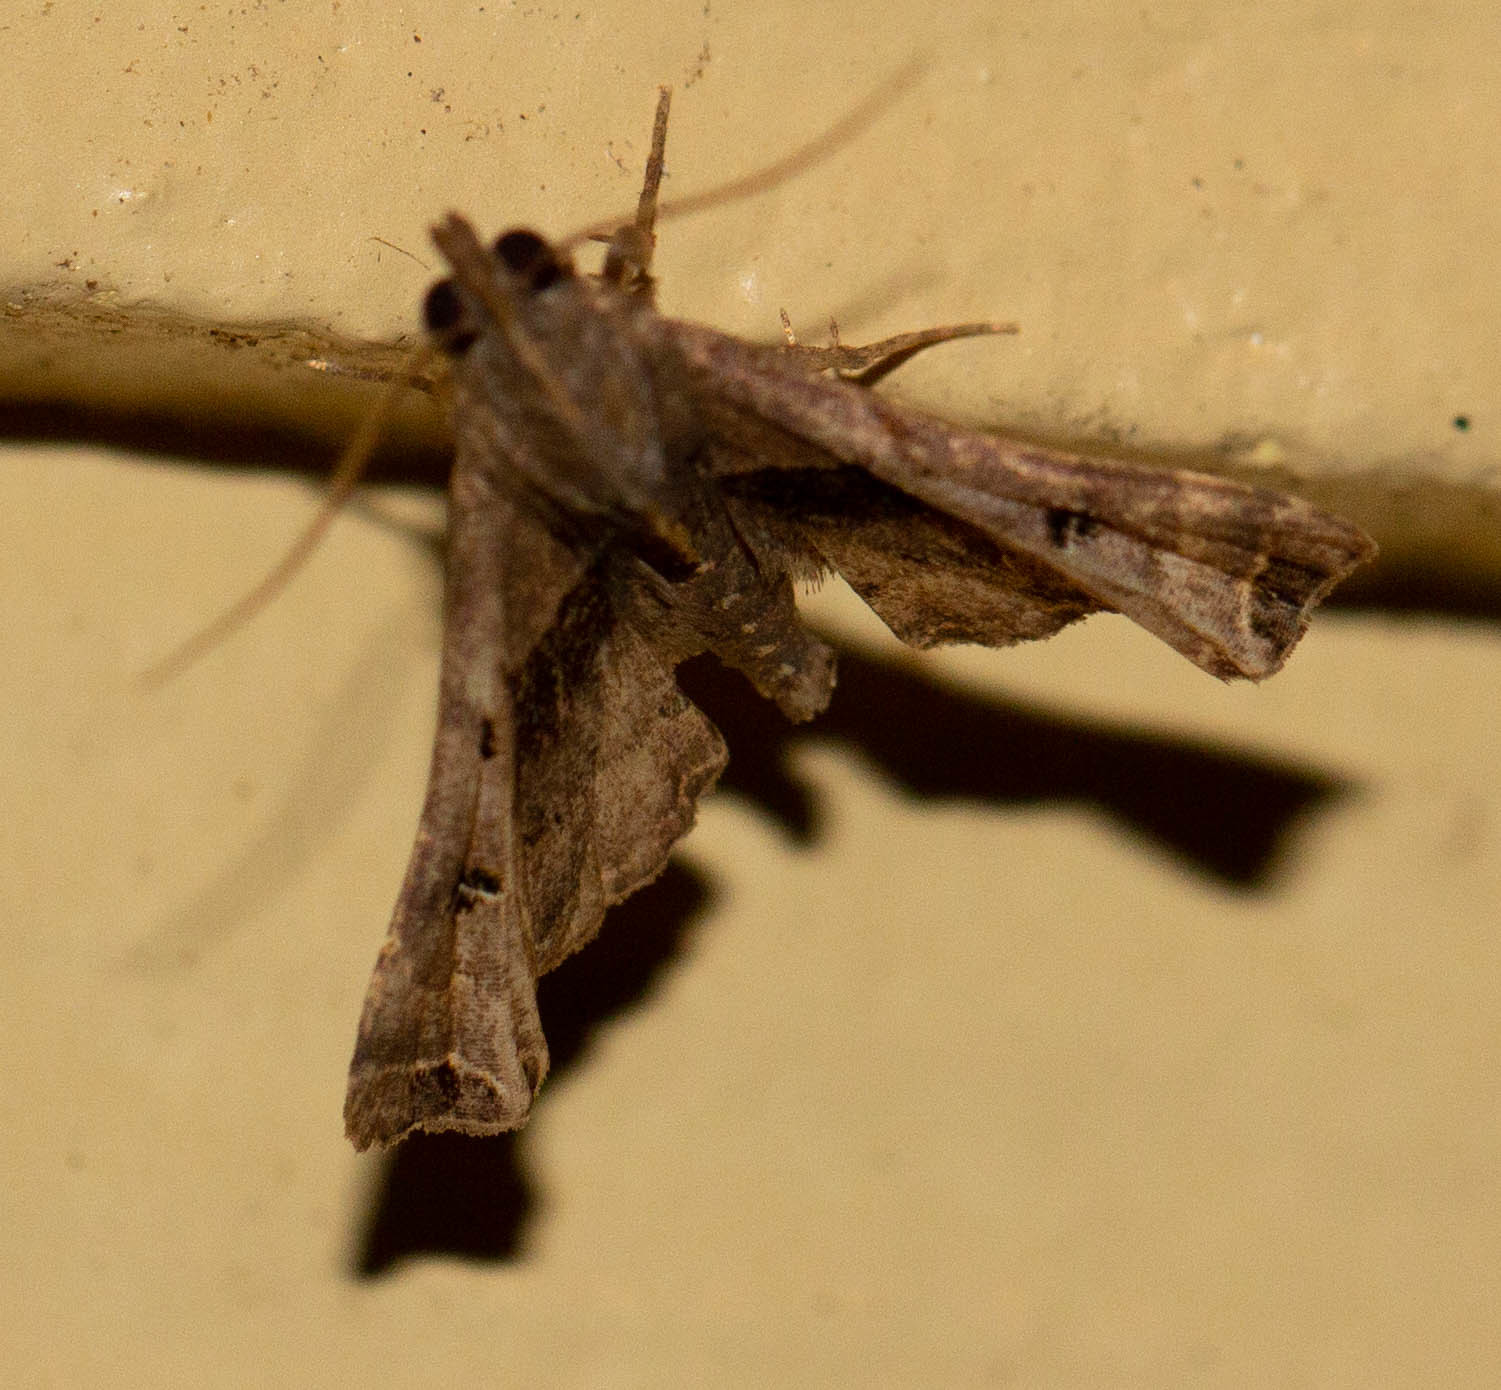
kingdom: Animalia
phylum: Arthropoda
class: Insecta
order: Lepidoptera
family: Erebidae
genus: Palthis
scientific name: Palthis asopialis
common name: Faint-spotted palthis moth
